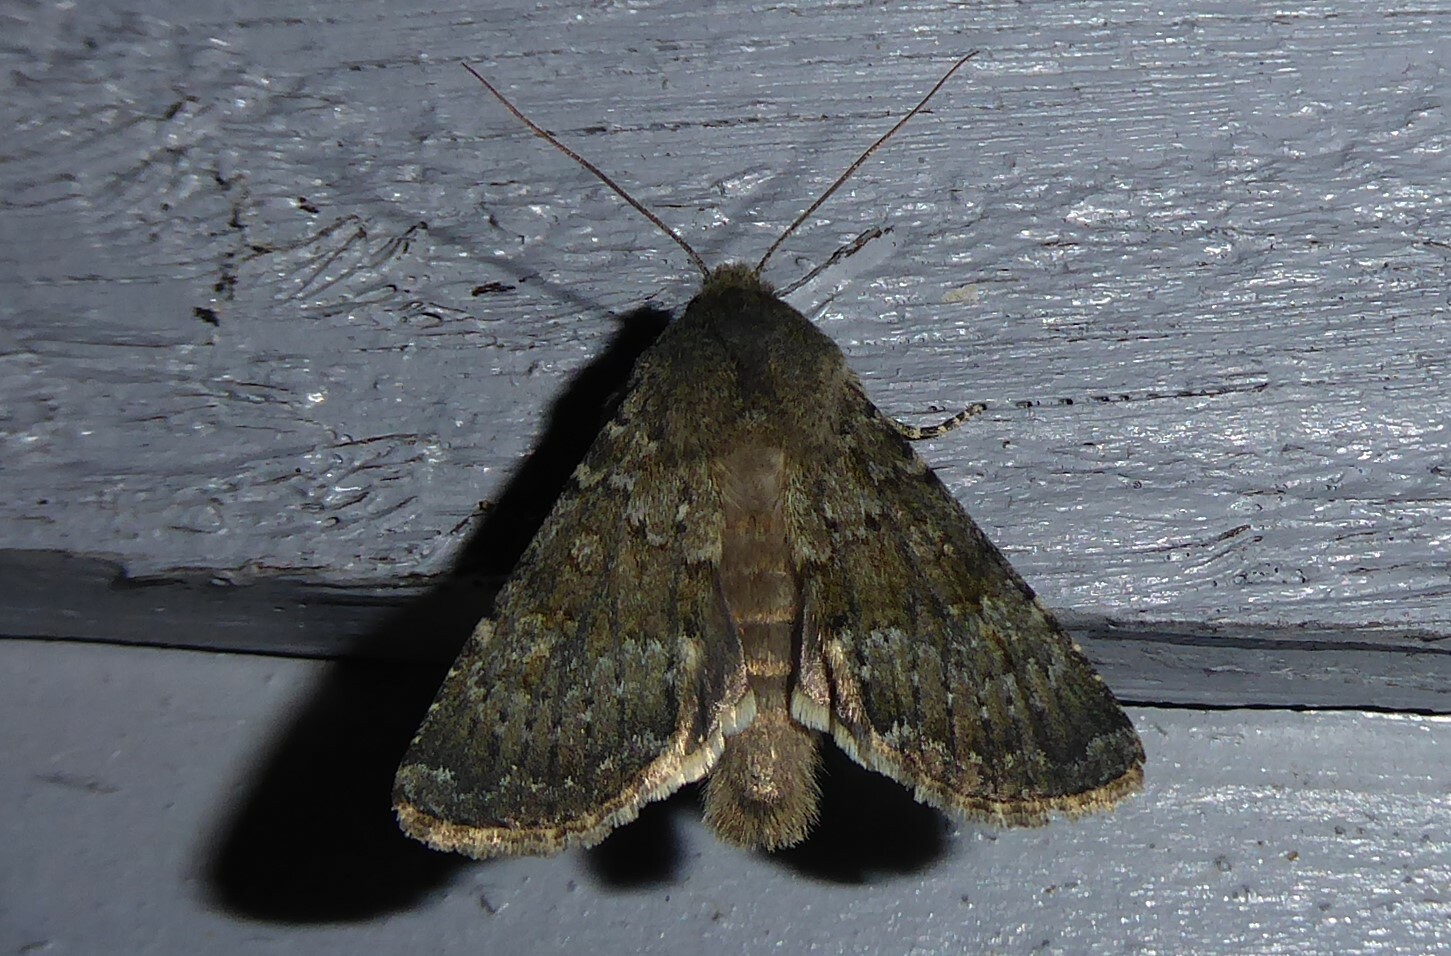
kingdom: Animalia
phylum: Arthropoda
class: Insecta
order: Lepidoptera
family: Noctuidae
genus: Ichneutica
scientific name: Ichneutica moderata
